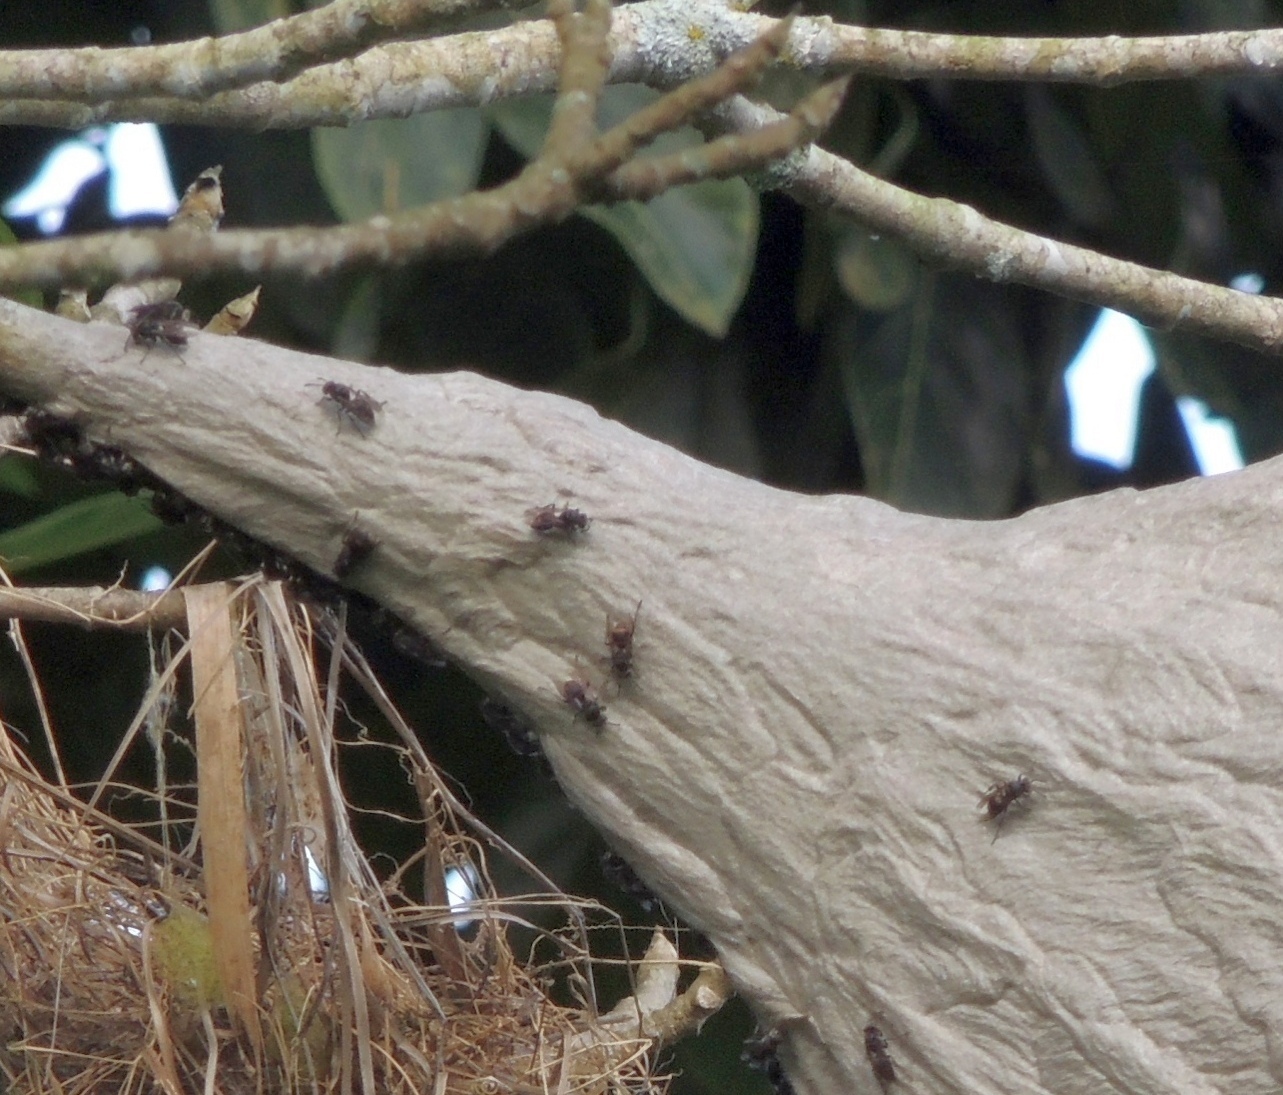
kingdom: Animalia
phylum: Arthropoda
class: Insecta
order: Hymenoptera
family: Vespidae
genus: Parachartergus
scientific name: Parachartergus compressus
